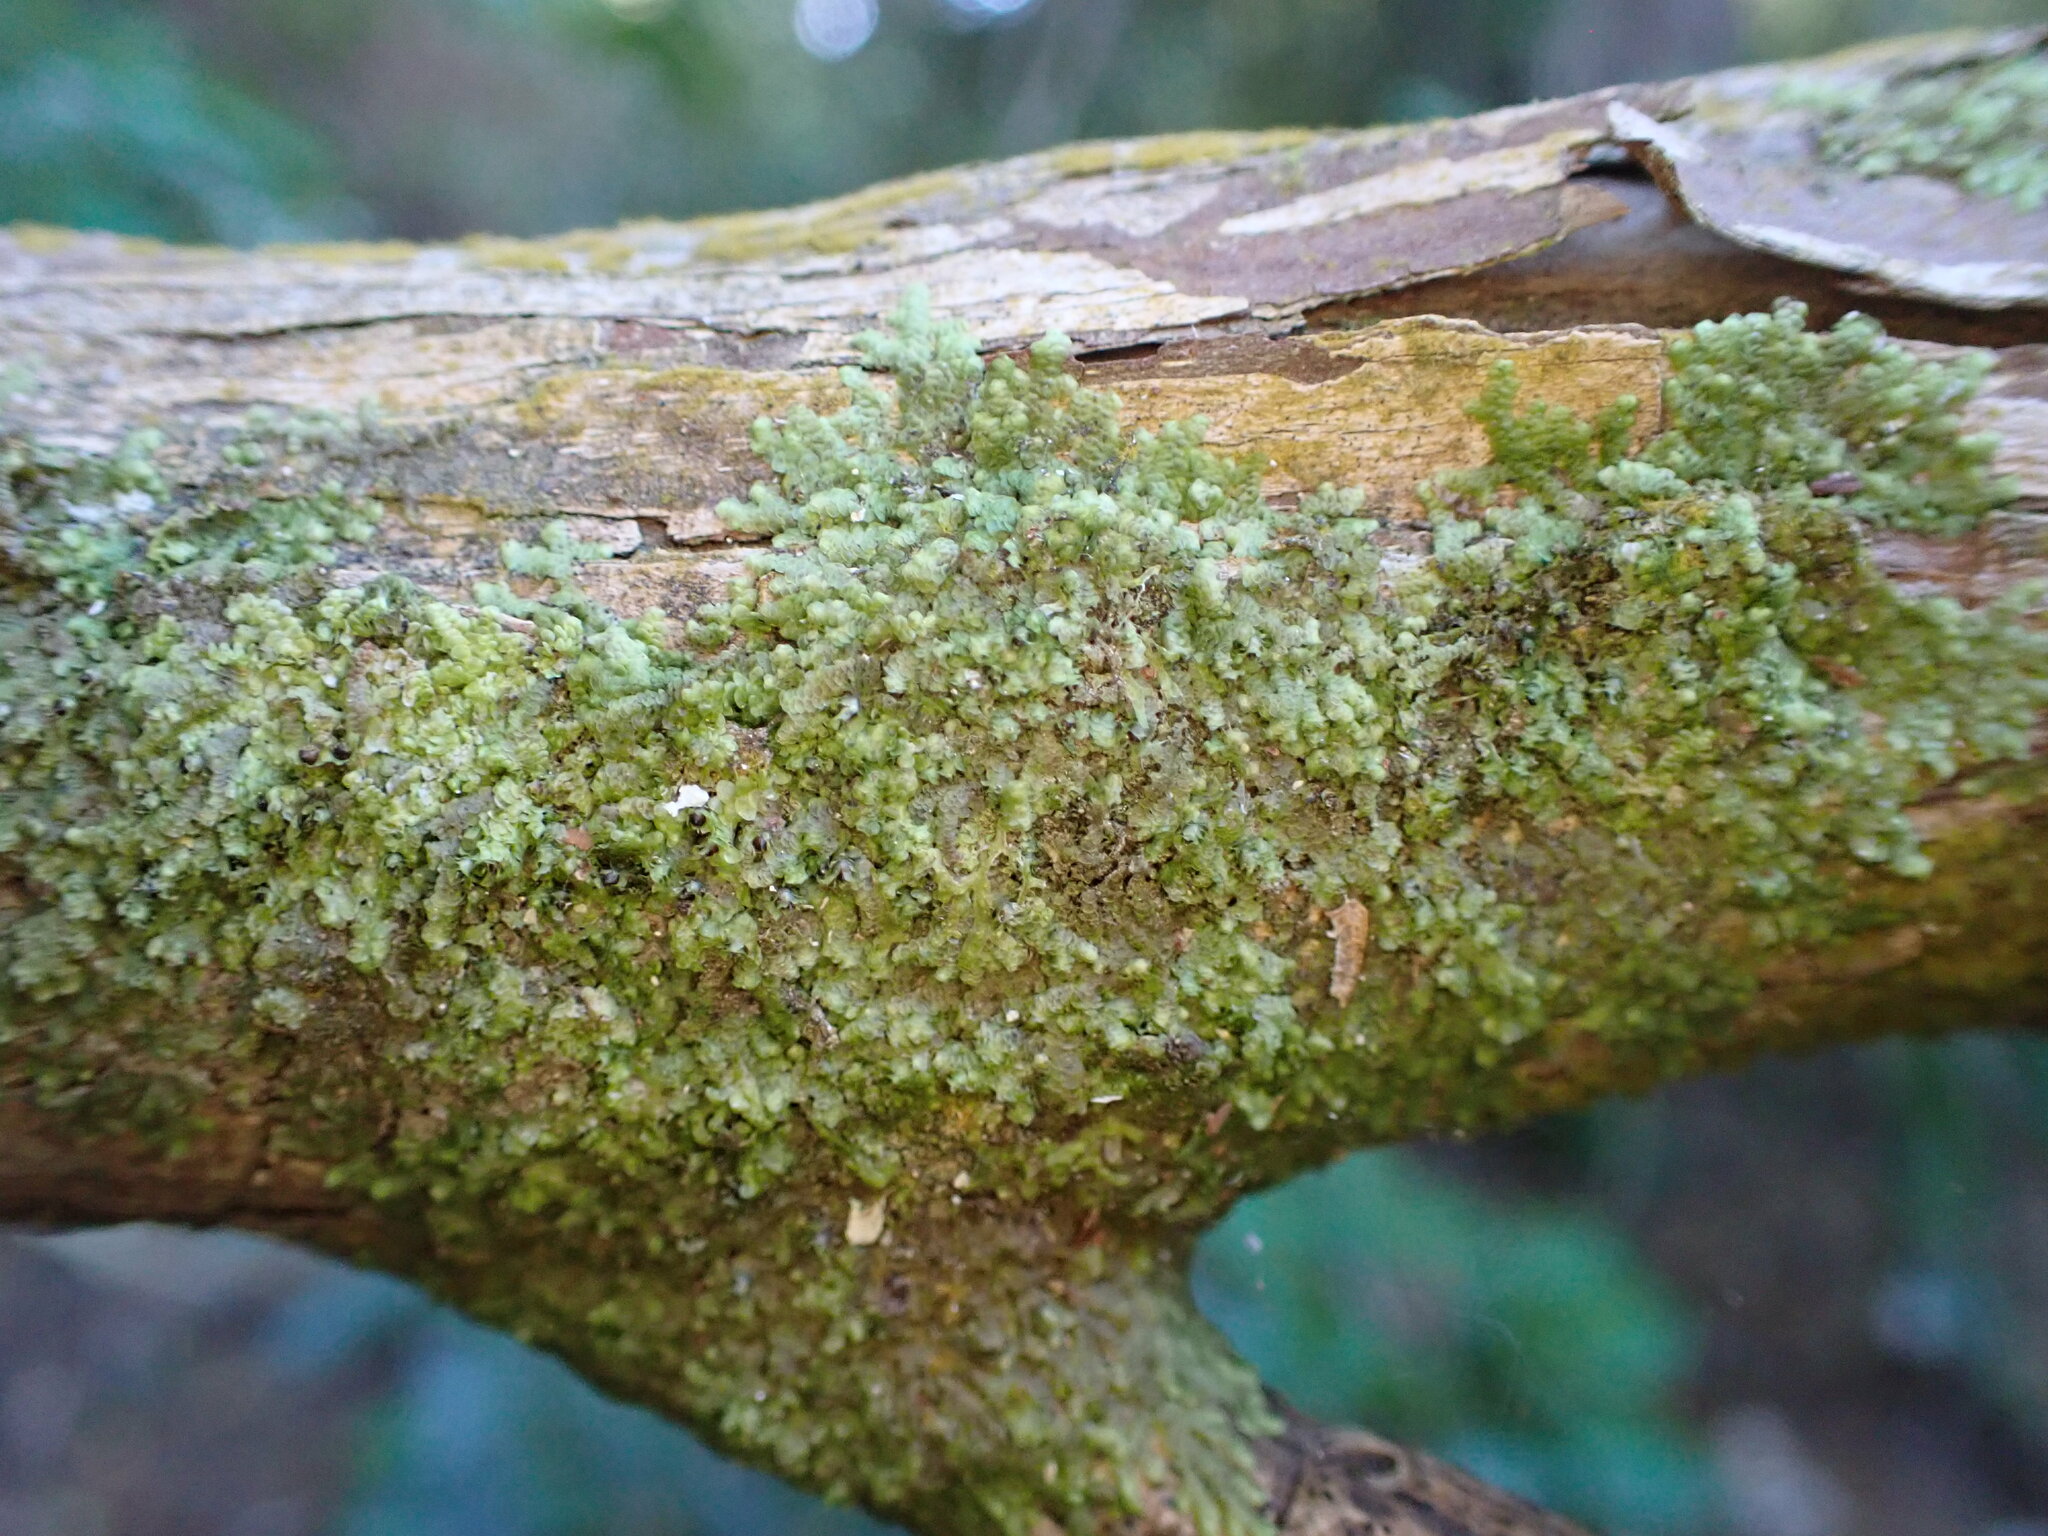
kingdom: Plantae
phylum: Marchantiophyta
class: Jungermanniopsida
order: Porellales
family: Frullaniaceae
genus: Frullania
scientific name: Frullania patula
